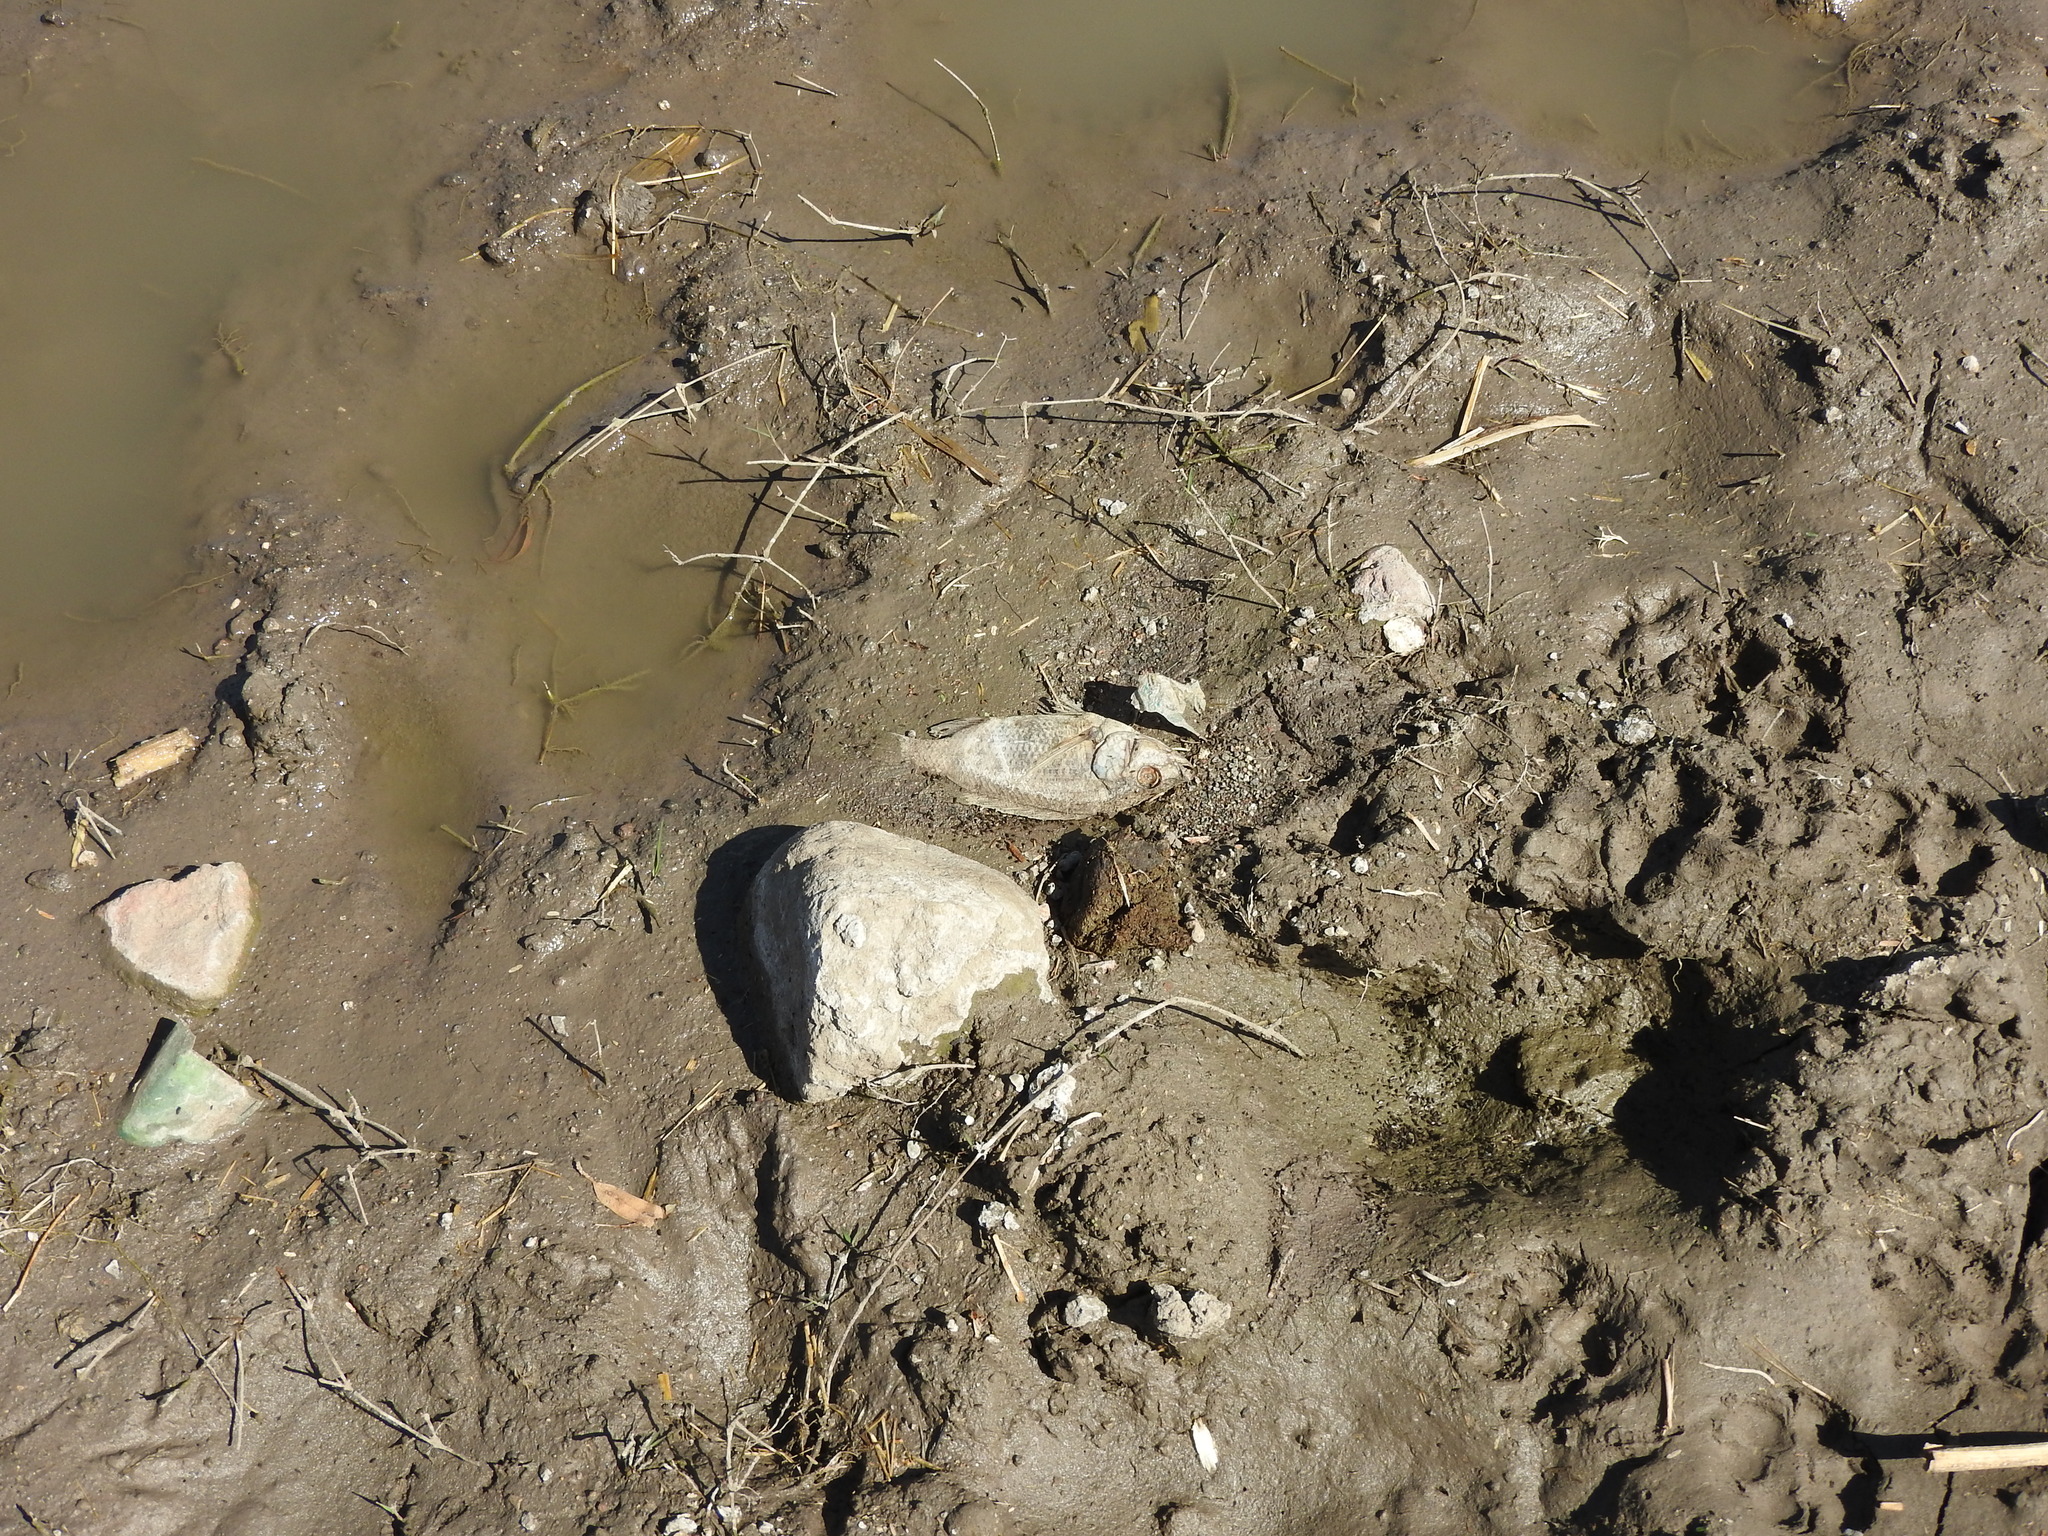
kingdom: Animalia
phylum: Chordata
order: Perciformes
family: Cichlidae
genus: Oreochromis
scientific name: Oreochromis niloticus
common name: Nile tilapia
